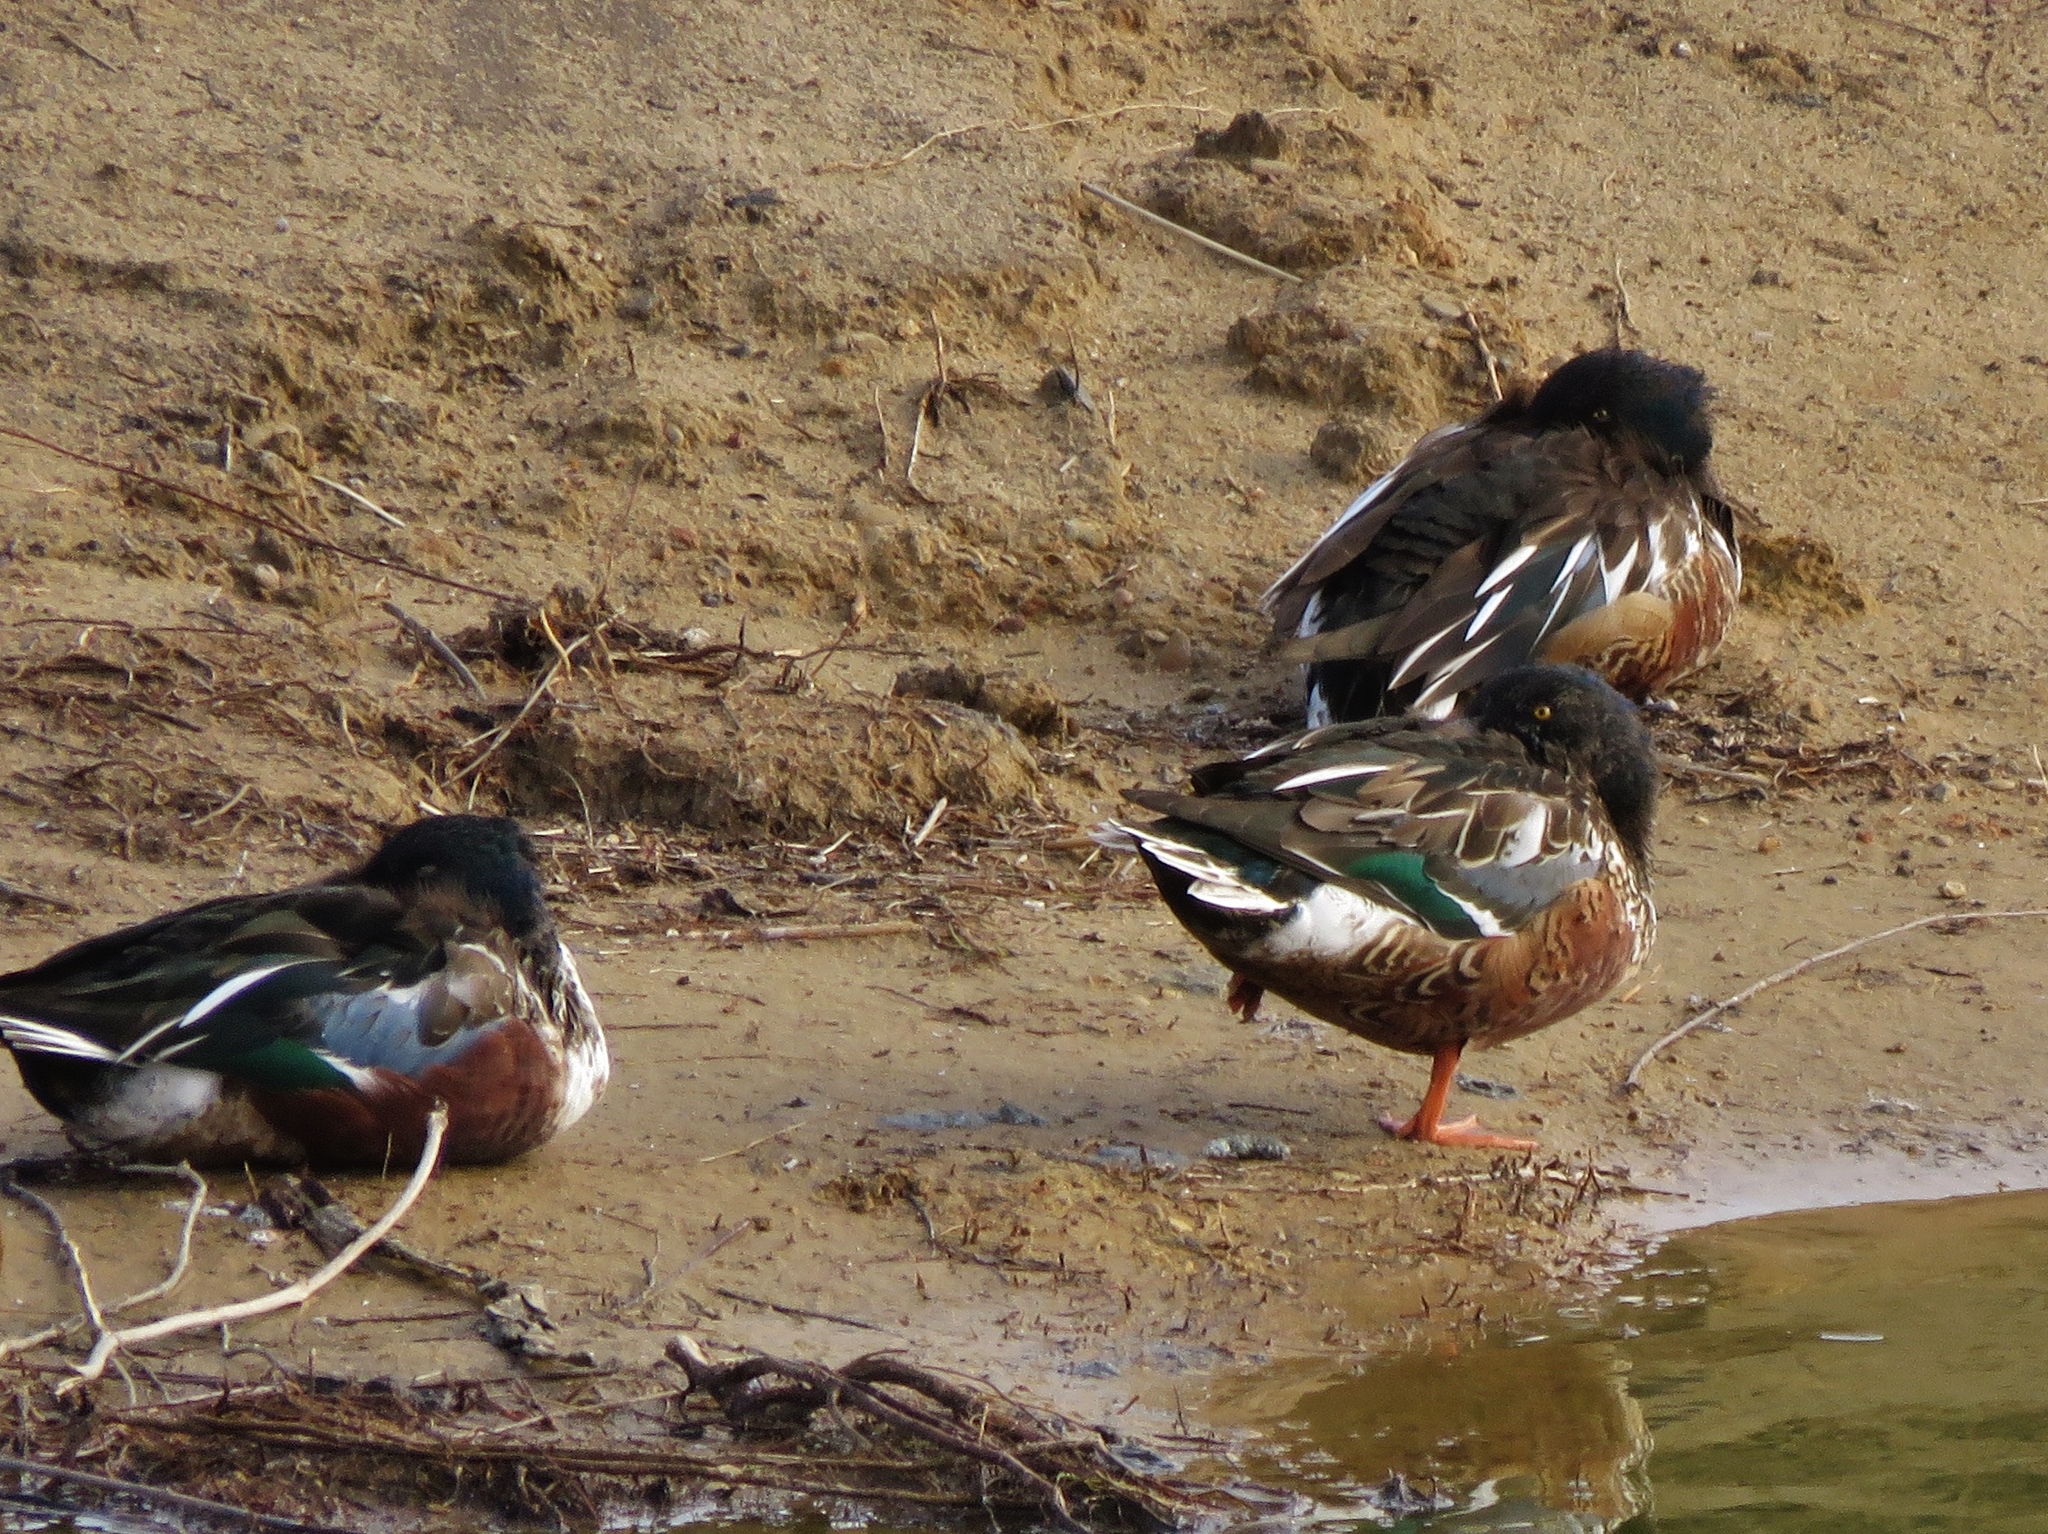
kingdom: Animalia
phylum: Chordata
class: Aves
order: Anseriformes
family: Anatidae
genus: Spatula
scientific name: Spatula clypeata
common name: Northern shoveler
